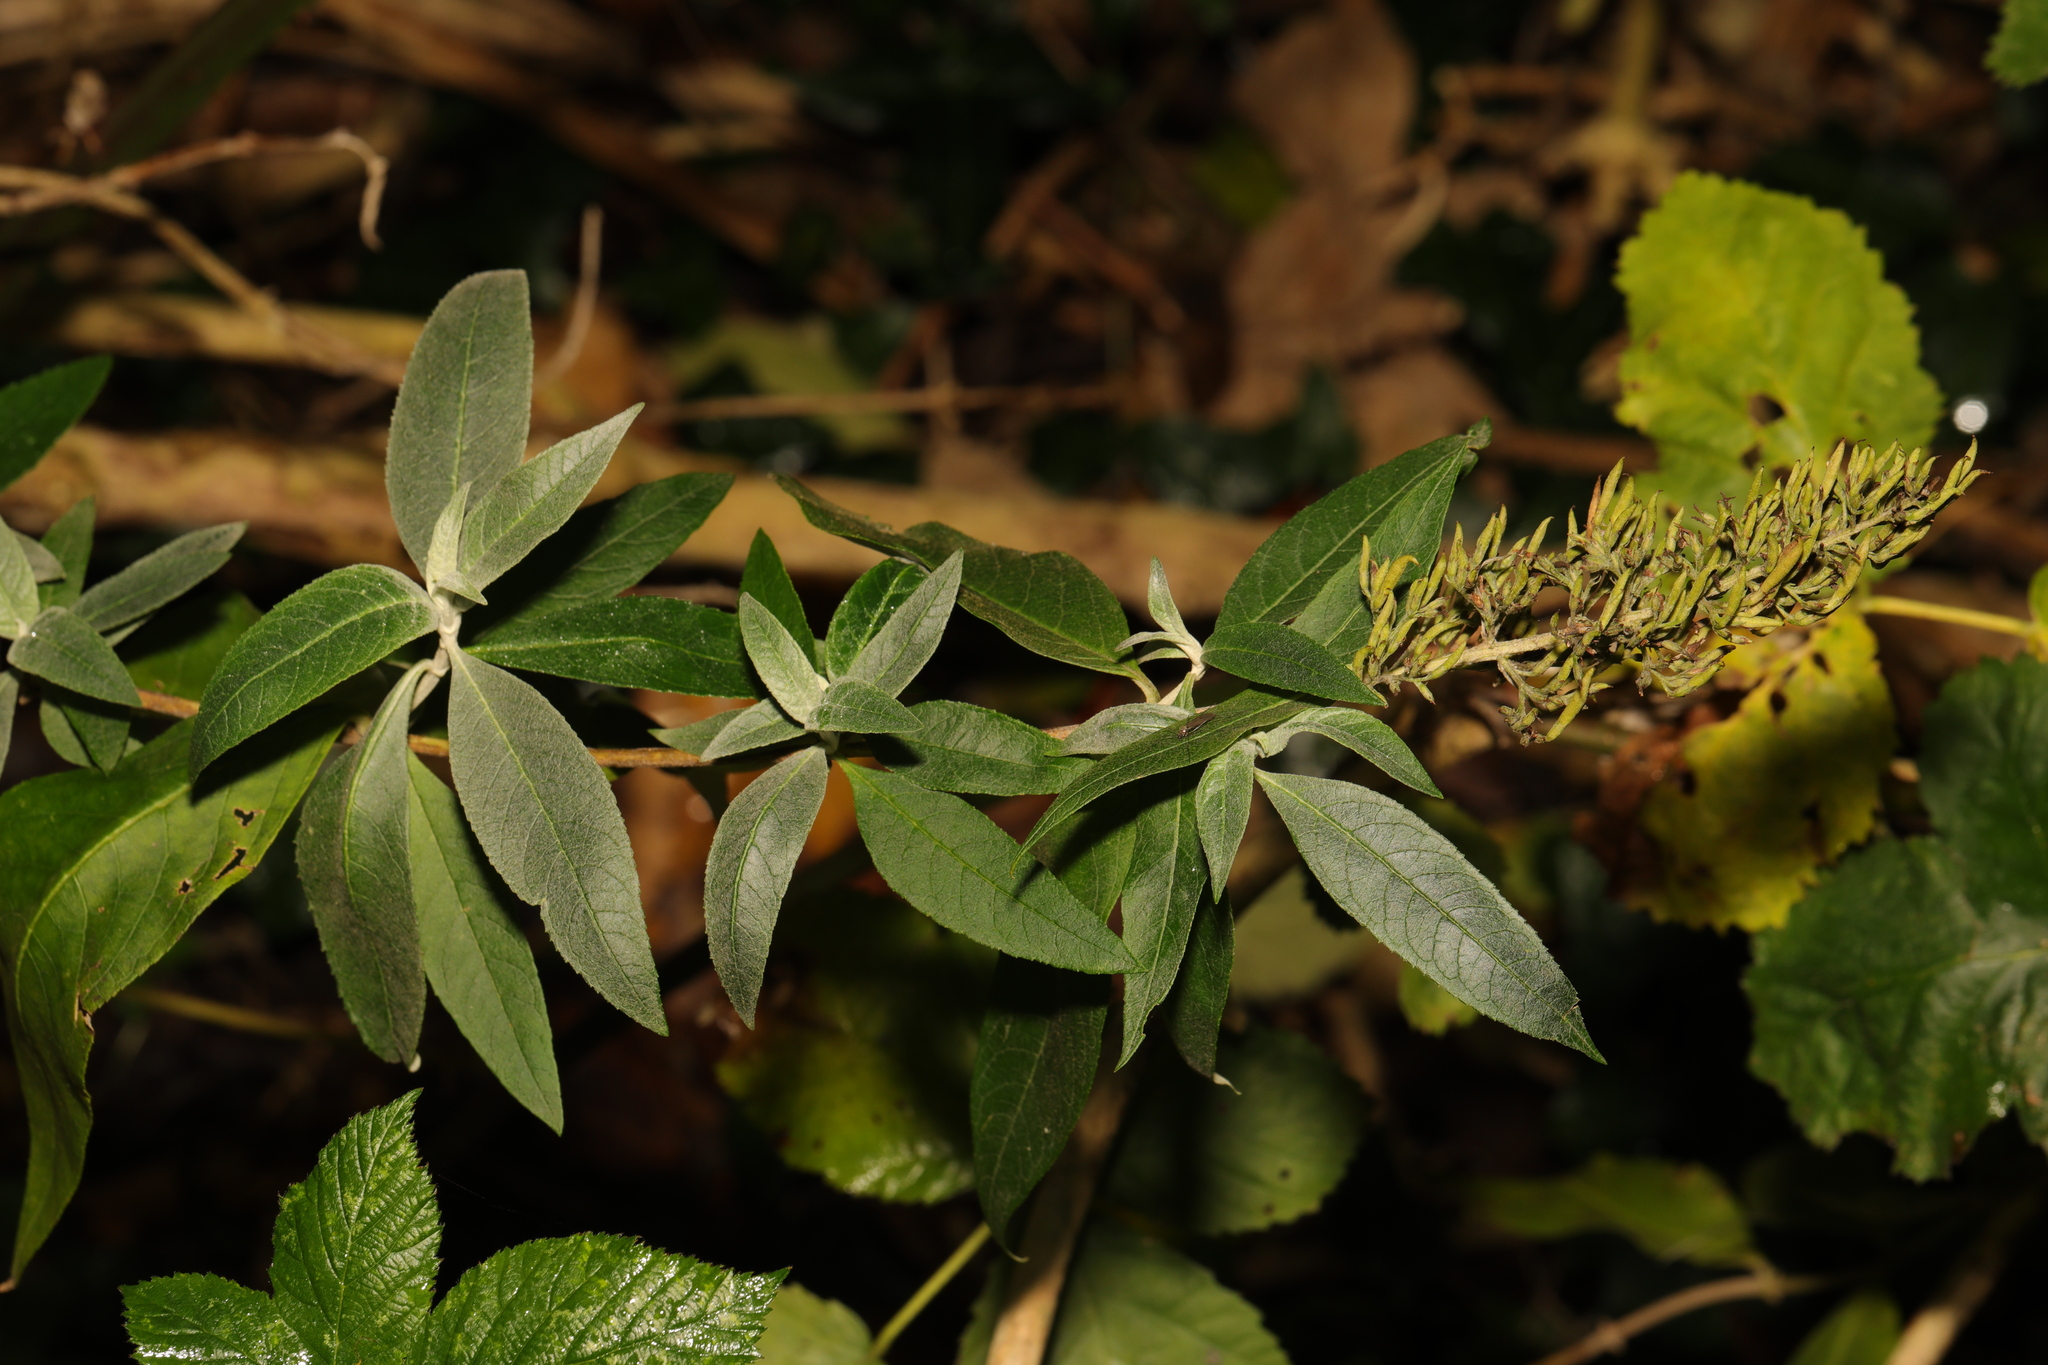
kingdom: Plantae
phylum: Tracheophyta
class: Magnoliopsida
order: Lamiales
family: Scrophulariaceae
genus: Buddleja
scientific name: Buddleja davidii
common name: Butterfly-bush
